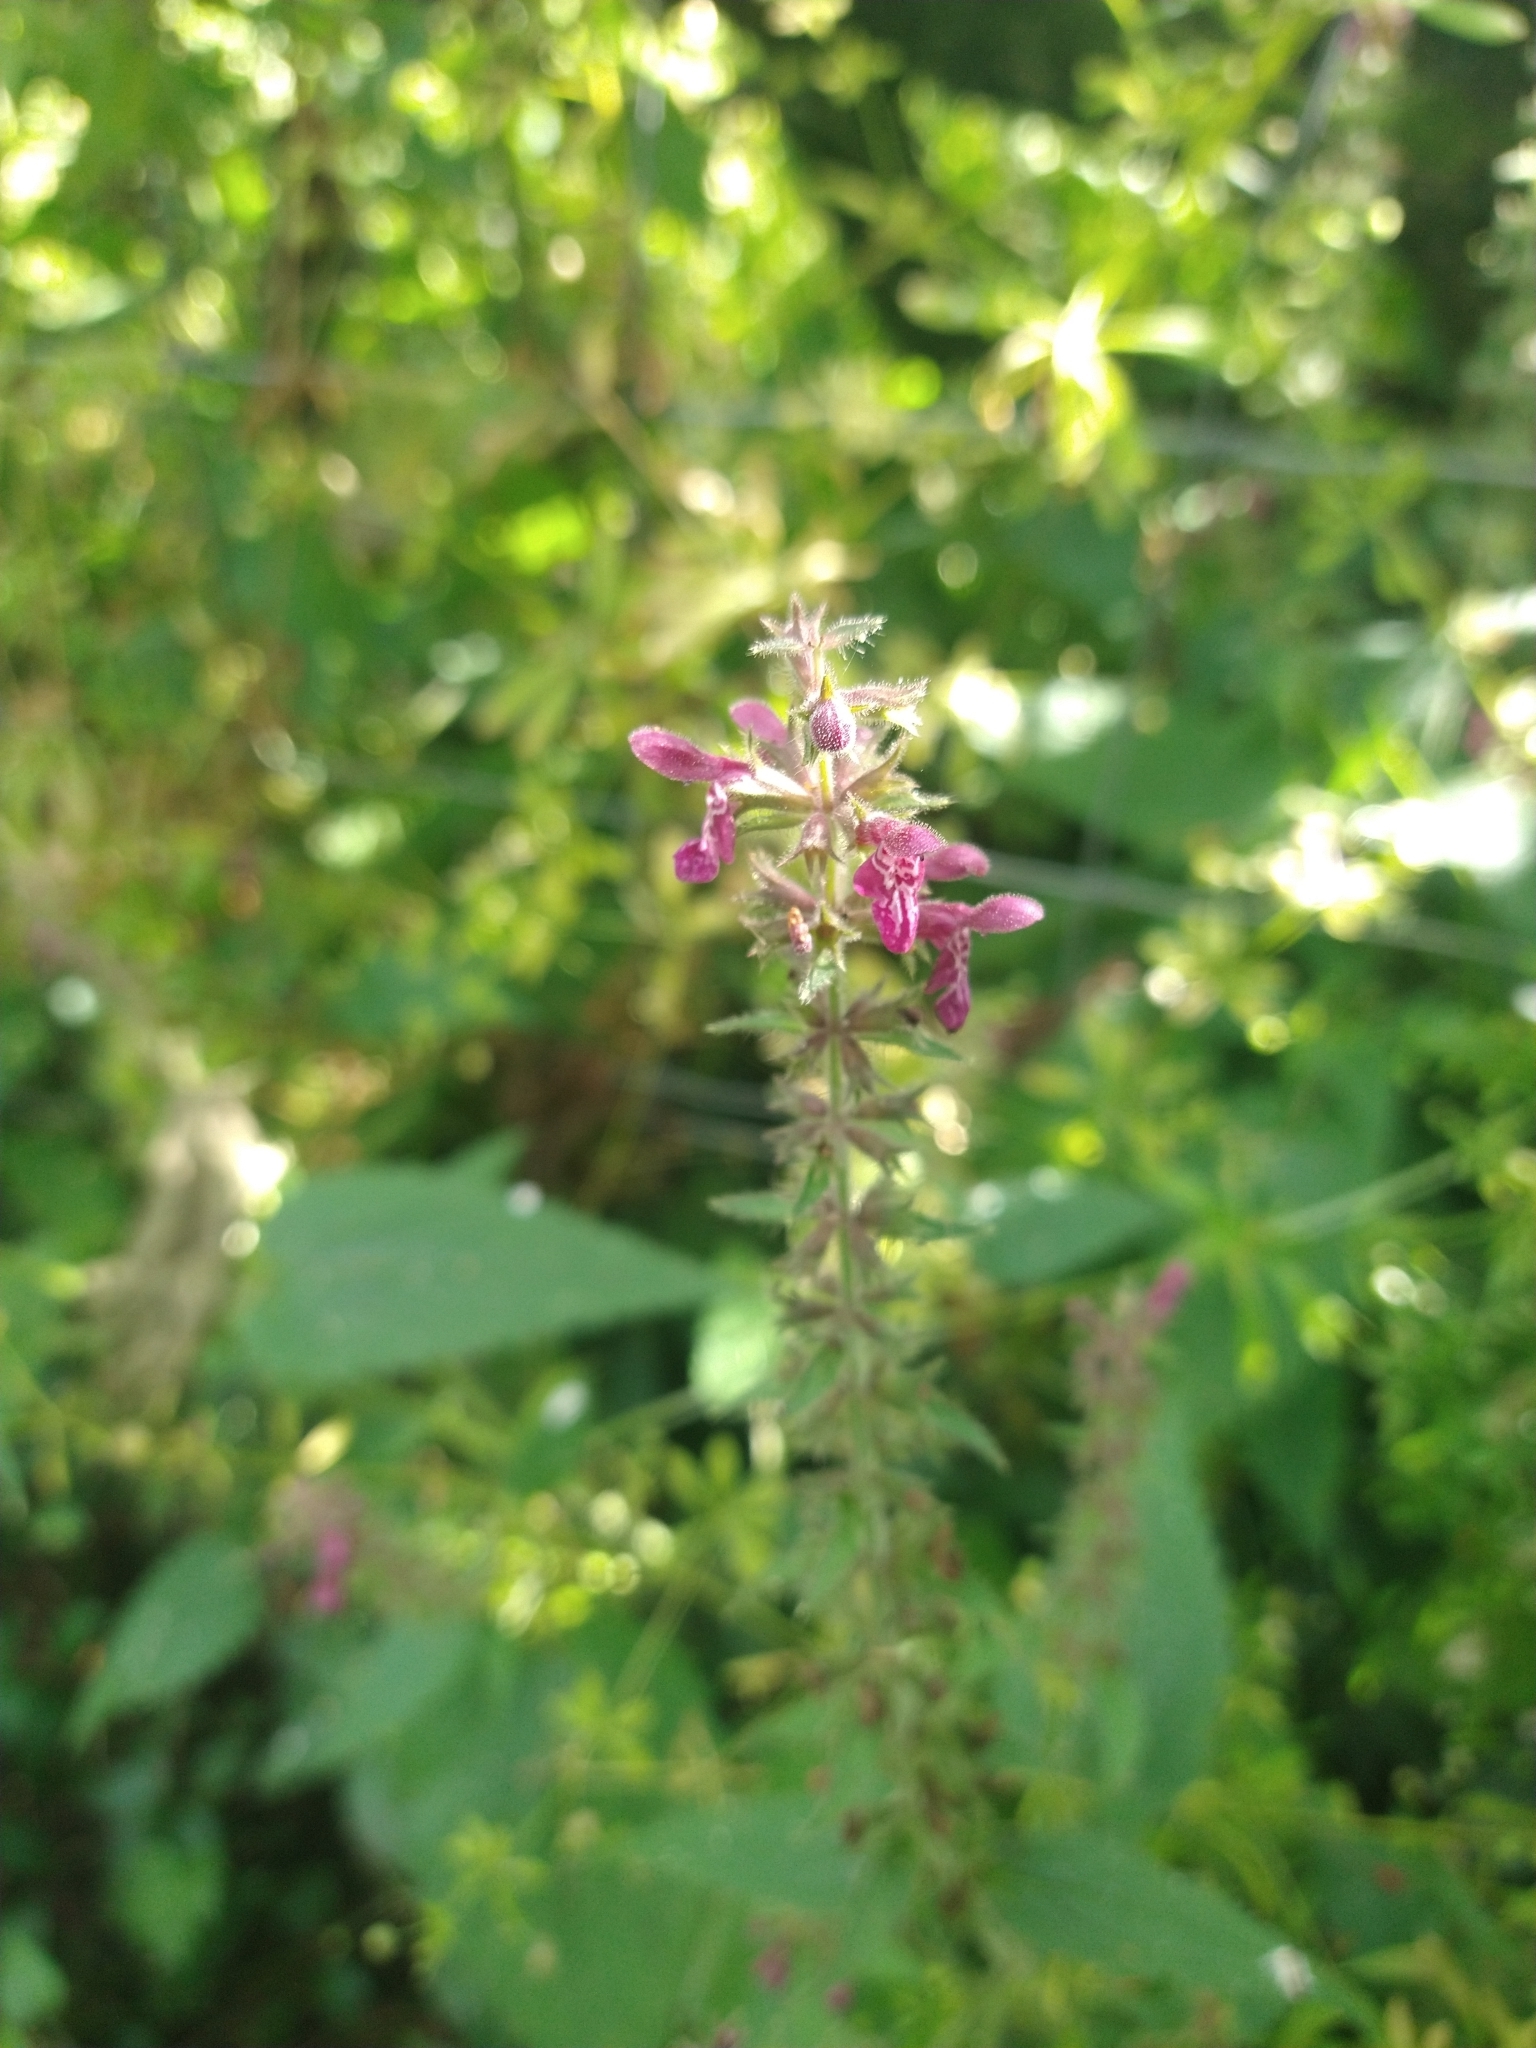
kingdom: Plantae
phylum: Tracheophyta
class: Magnoliopsida
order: Lamiales
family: Lamiaceae
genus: Stachys
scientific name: Stachys sylvatica
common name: Hedge woundwort
